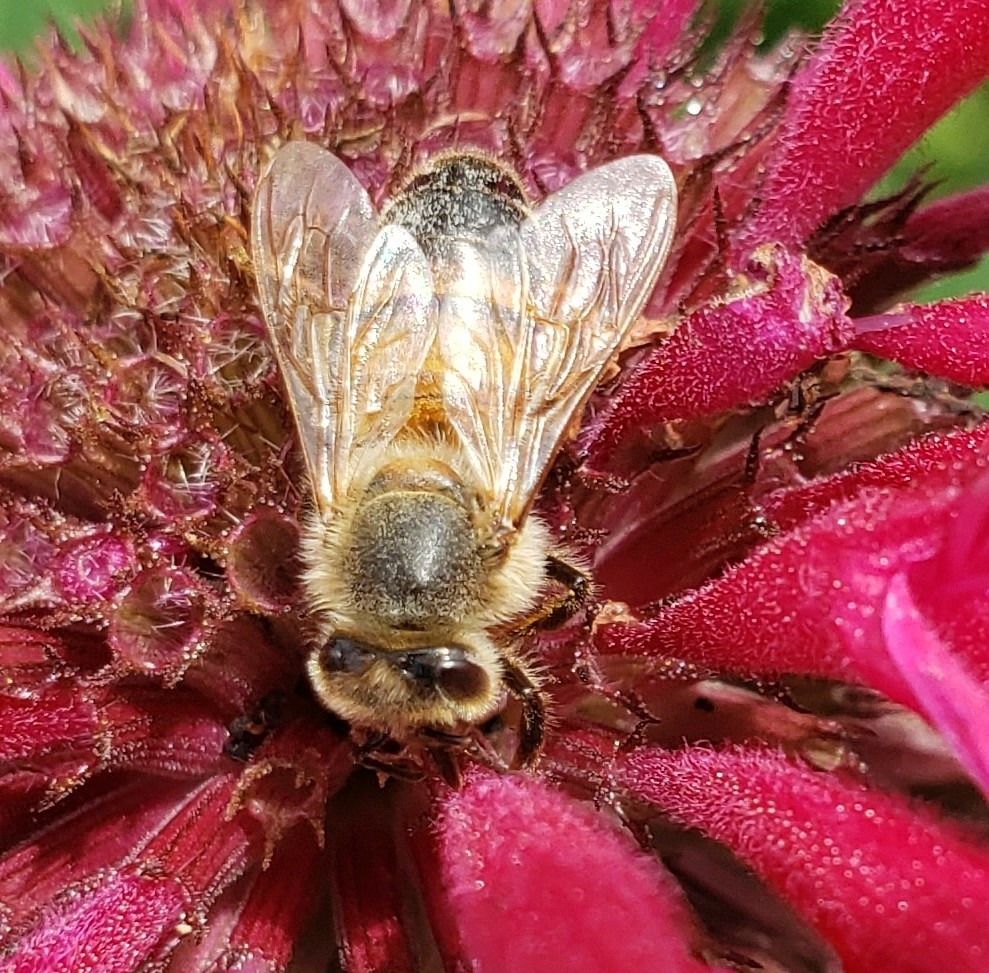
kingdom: Animalia
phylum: Arthropoda
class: Insecta
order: Hymenoptera
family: Apidae
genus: Apis
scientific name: Apis mellifera
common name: Honey bee
